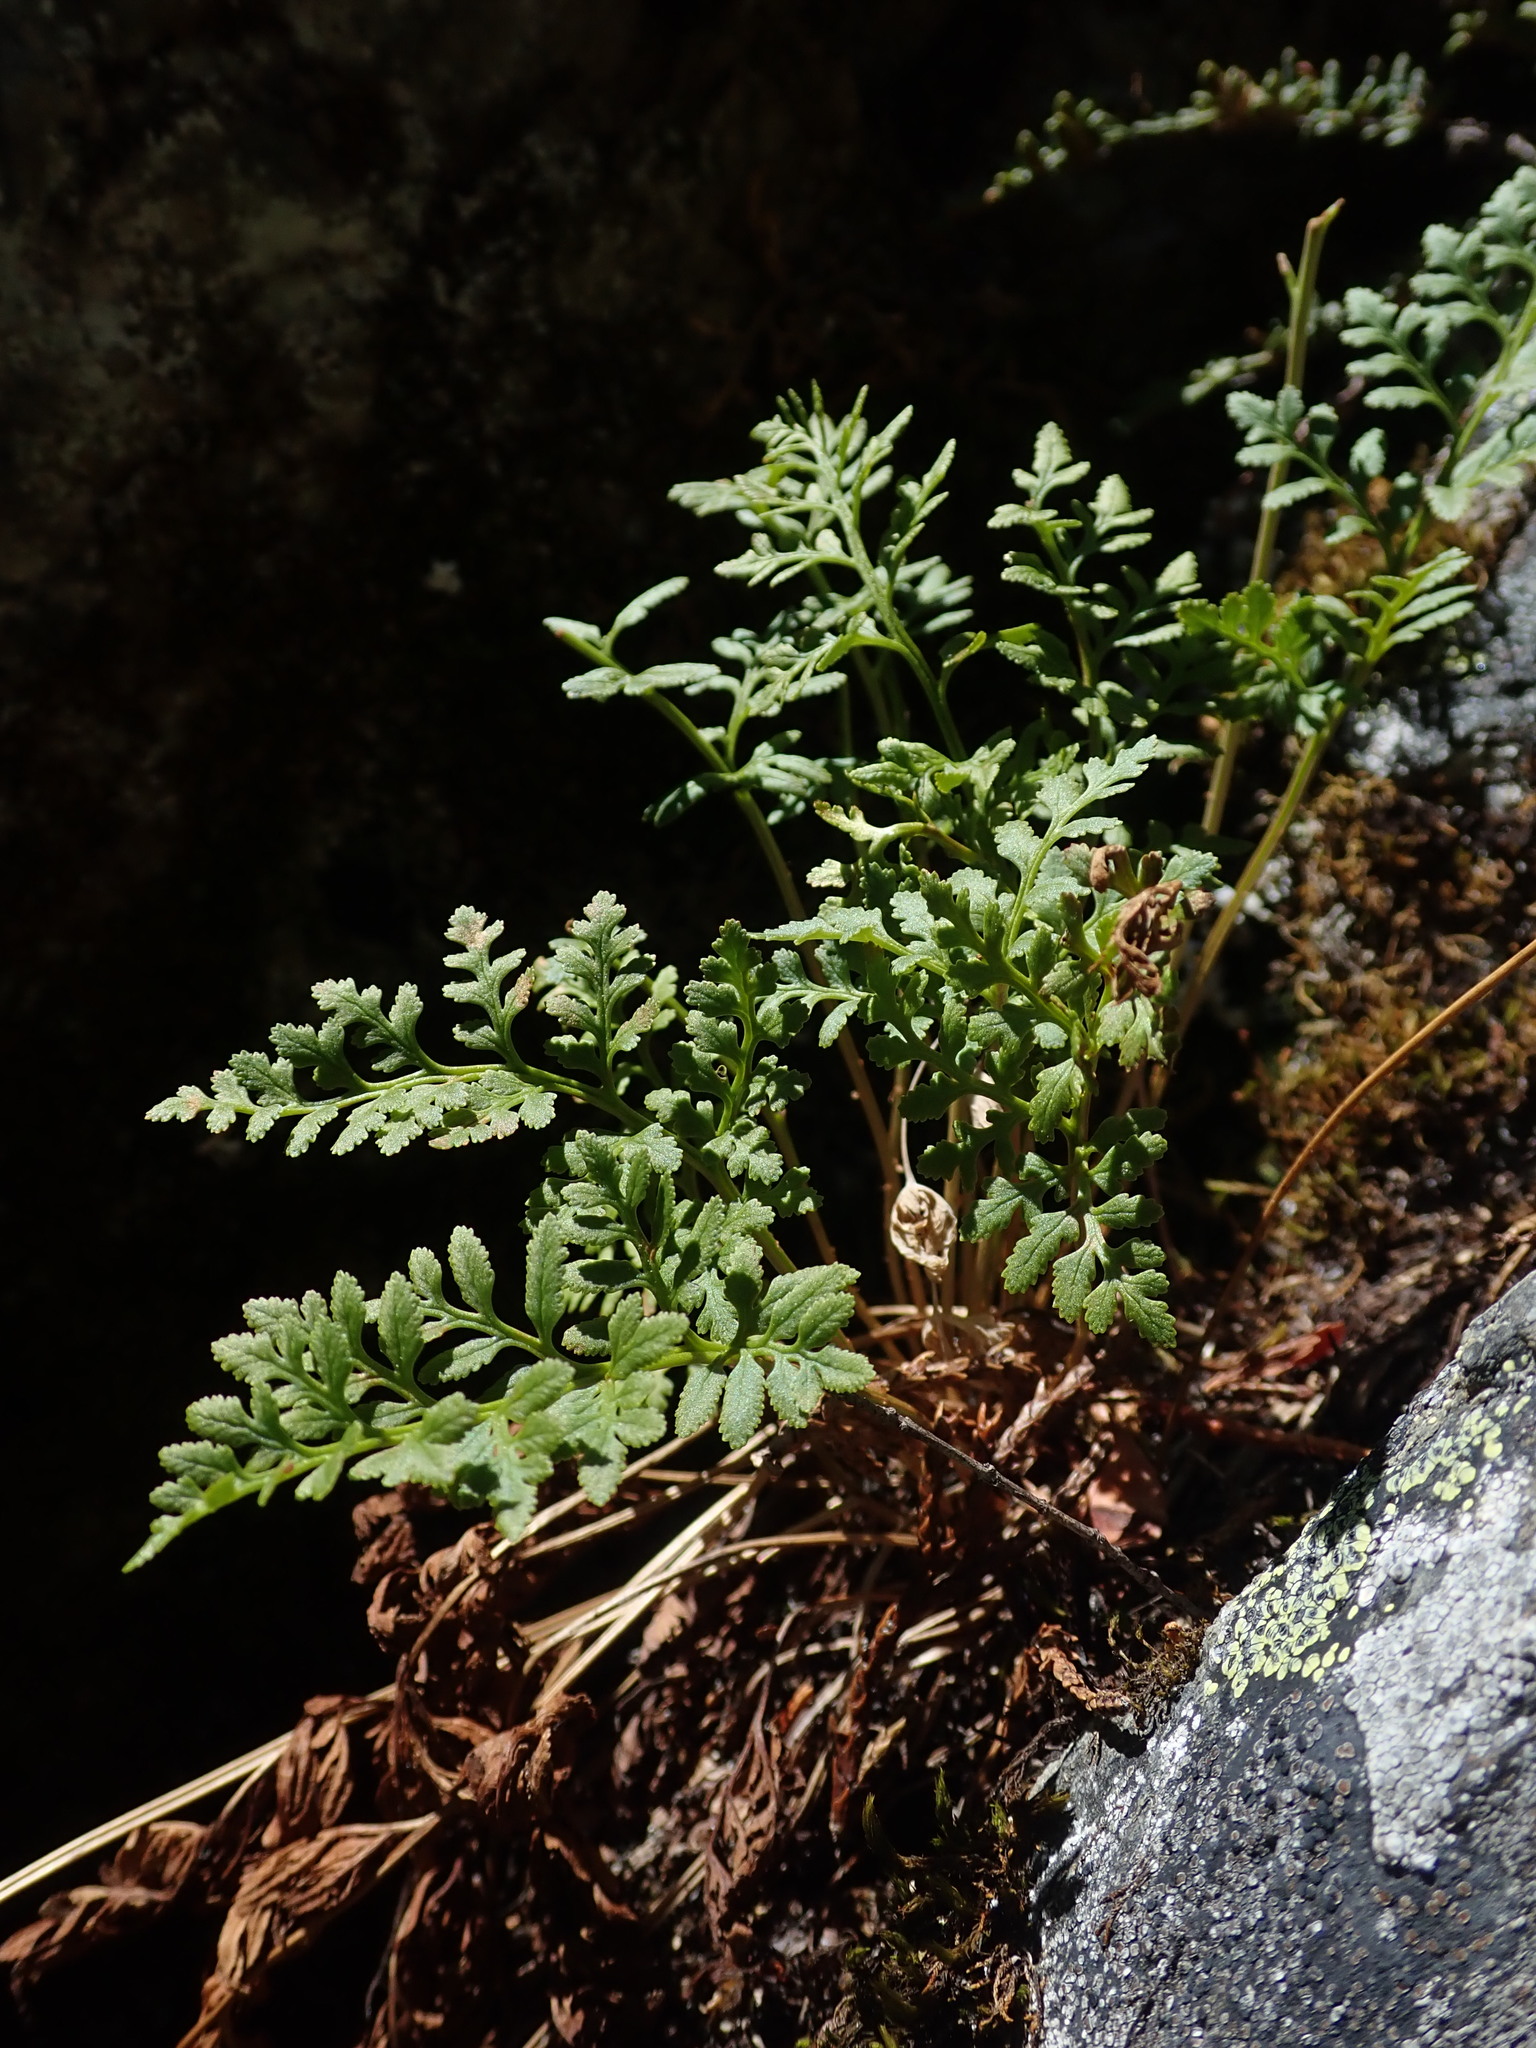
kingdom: Plantae
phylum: Tracheophyta
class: Polypodiopsida
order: Polypodiales
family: Pteridaceae
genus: Cryptogramma
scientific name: Cryptogramma acrostichoides
